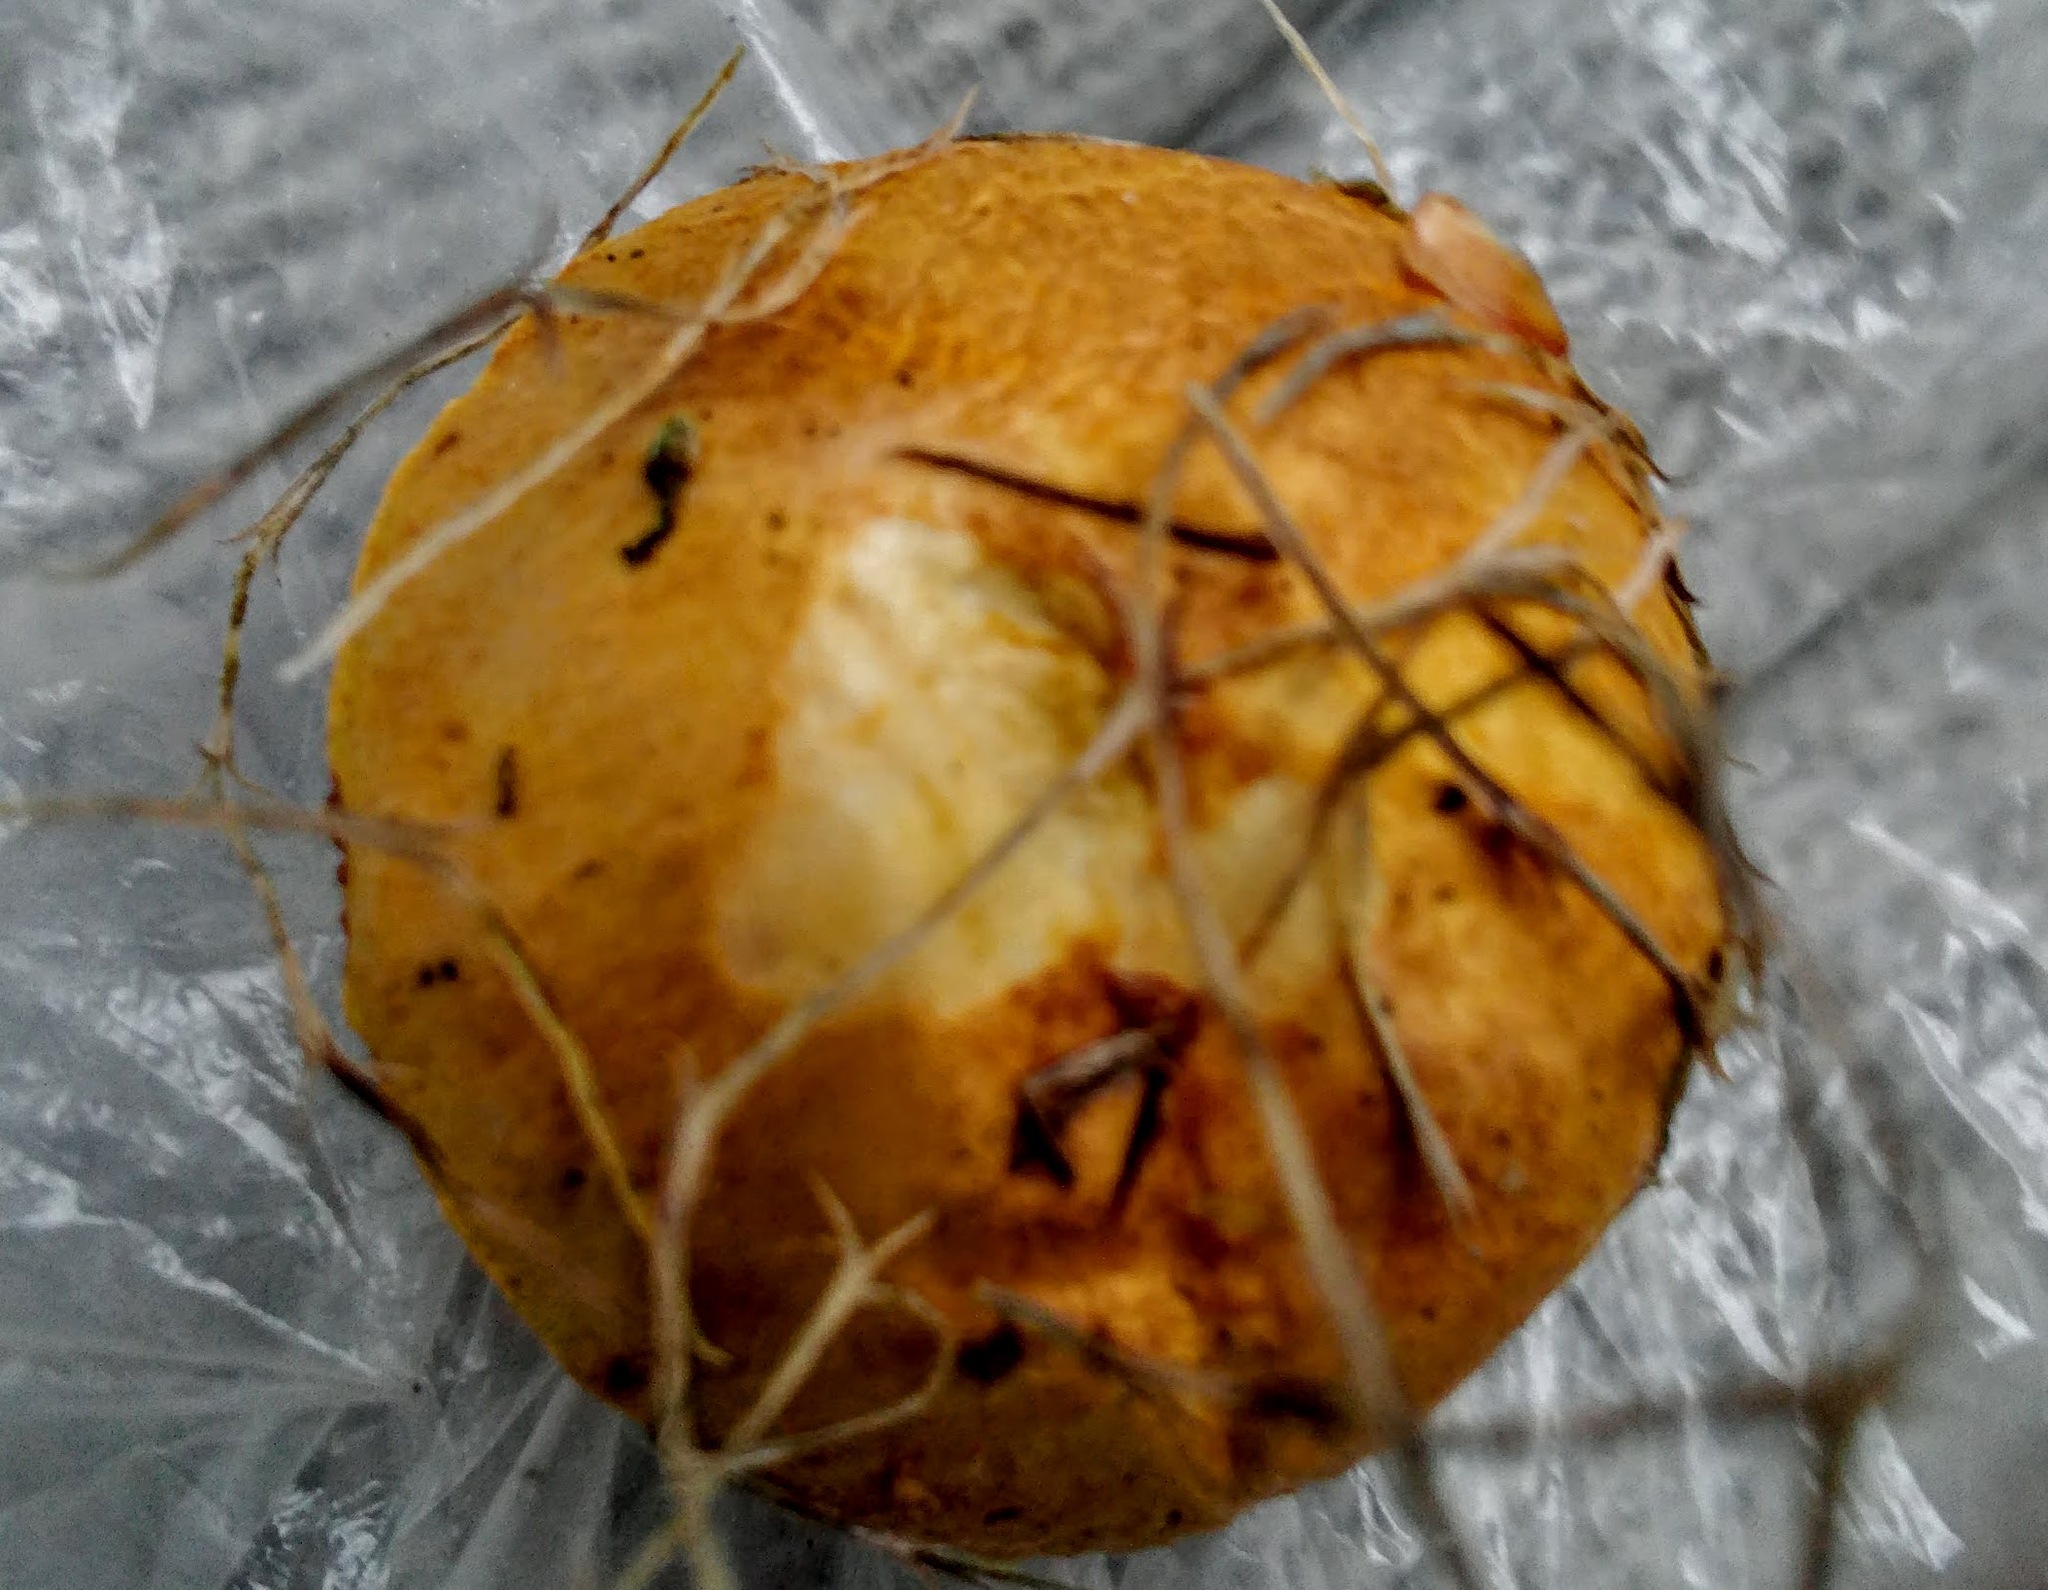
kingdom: Fungi
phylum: Basidiomycota
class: Agaricomycetes
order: Boletales
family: Boletaceae
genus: Chalciporus
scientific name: Chalciporus piperatus
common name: Peppery bolete
